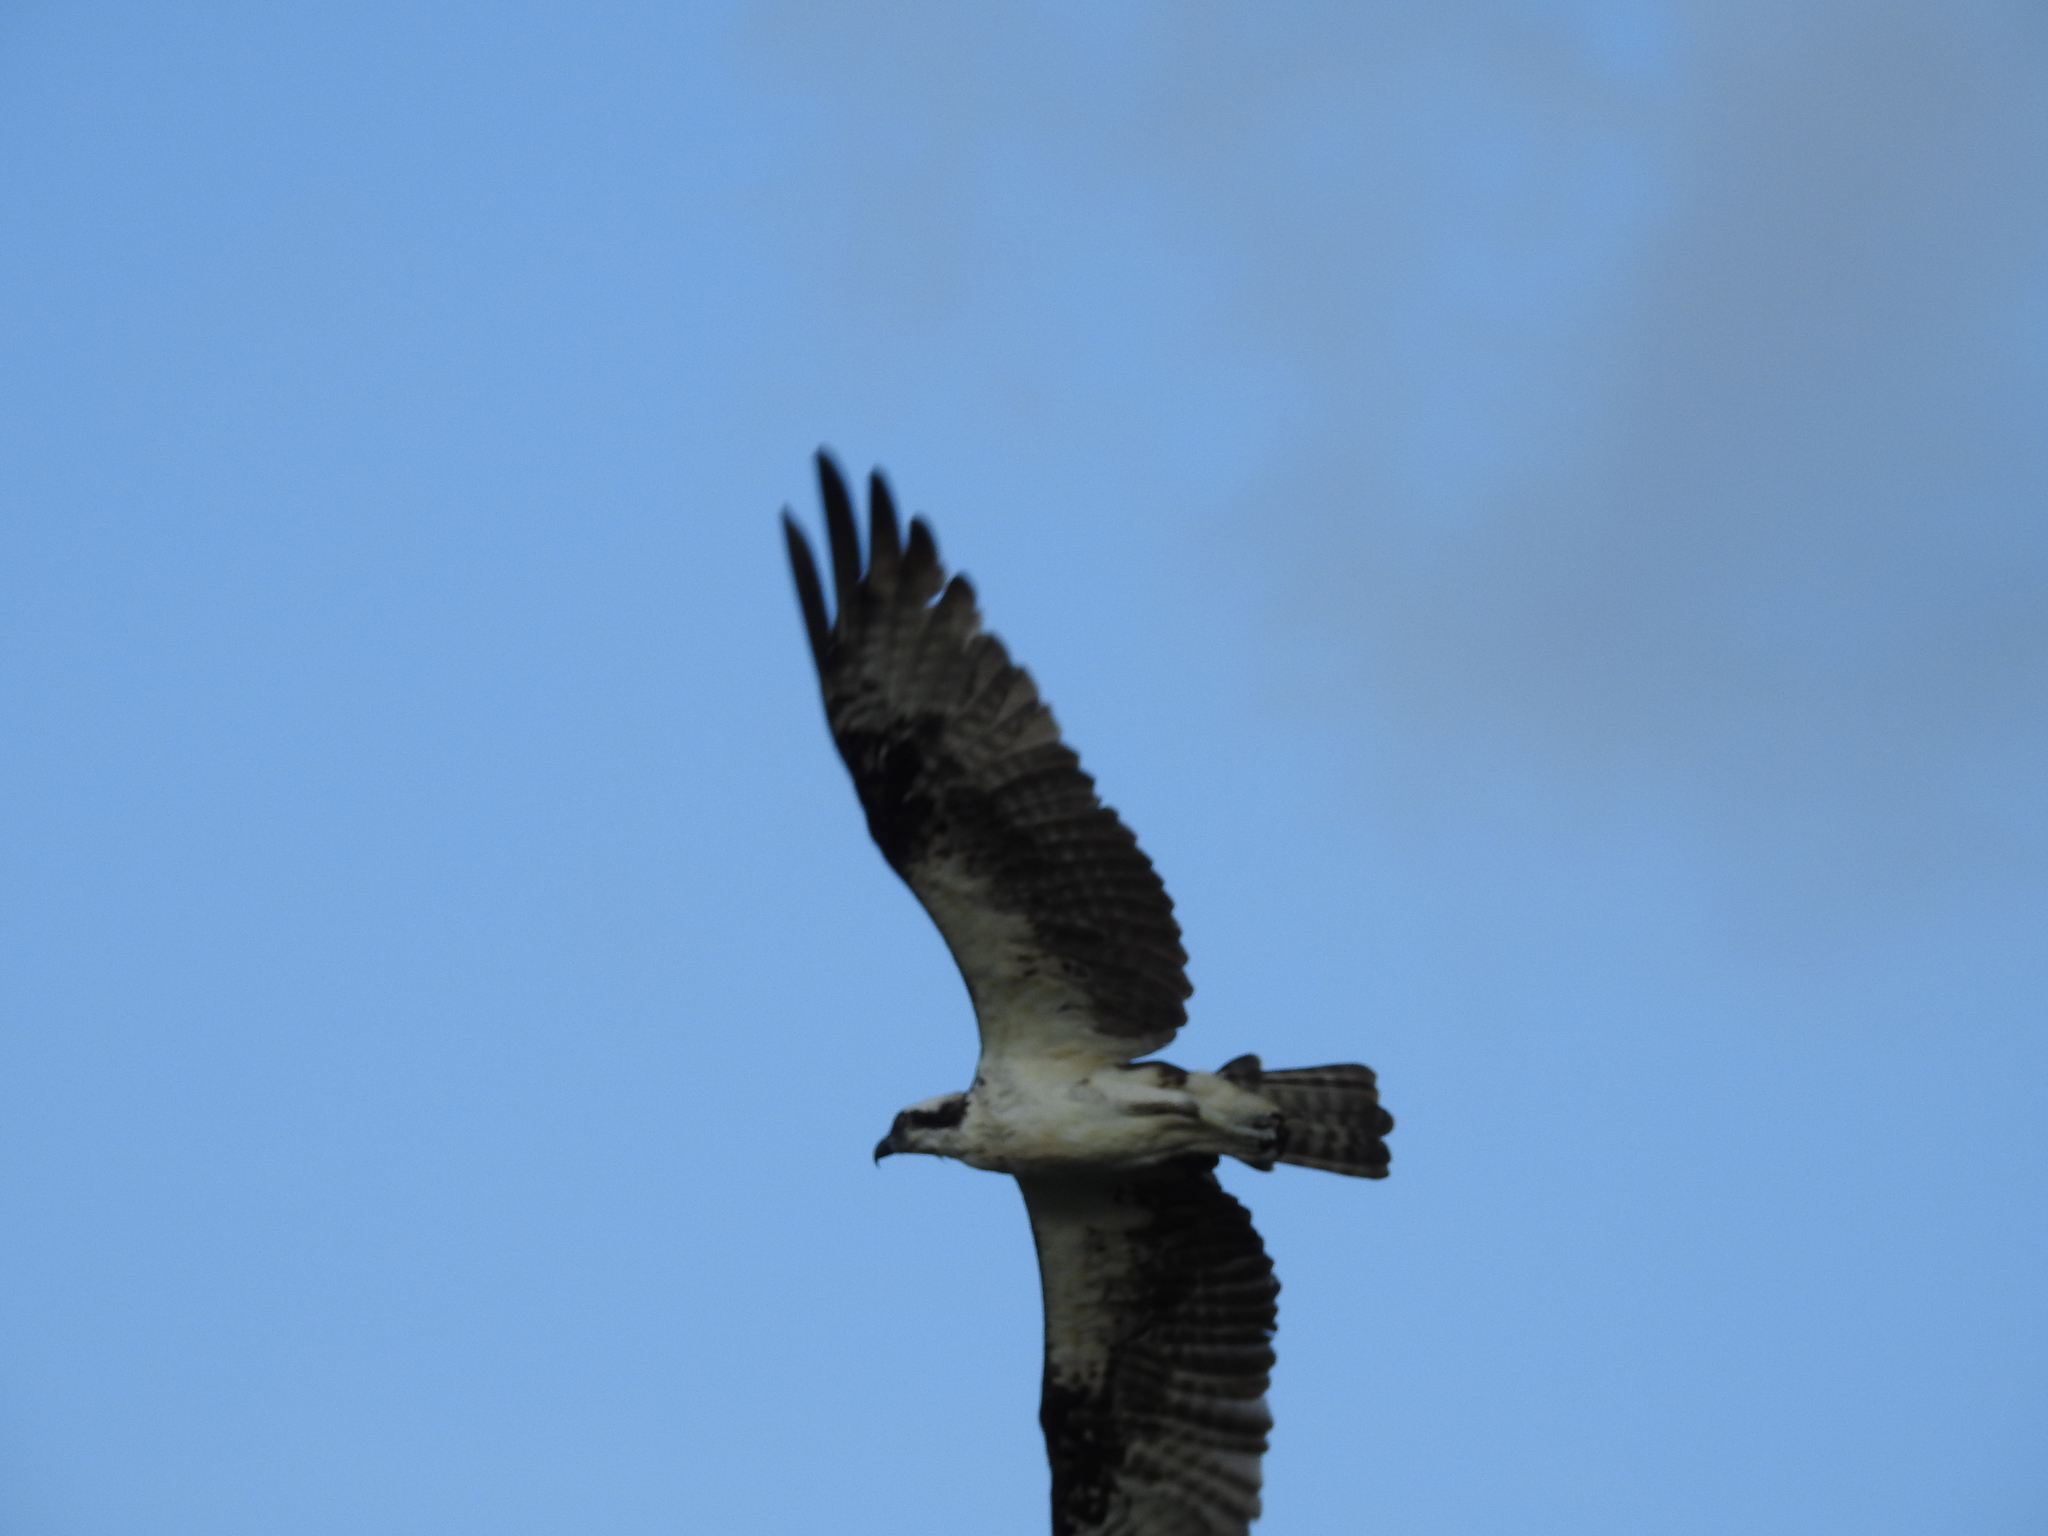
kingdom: Animalia
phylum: Chordata
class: Aves
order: Accipitriformes
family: Pandionidae
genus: Pandion
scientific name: Pandion haliaetus
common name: Osprey
